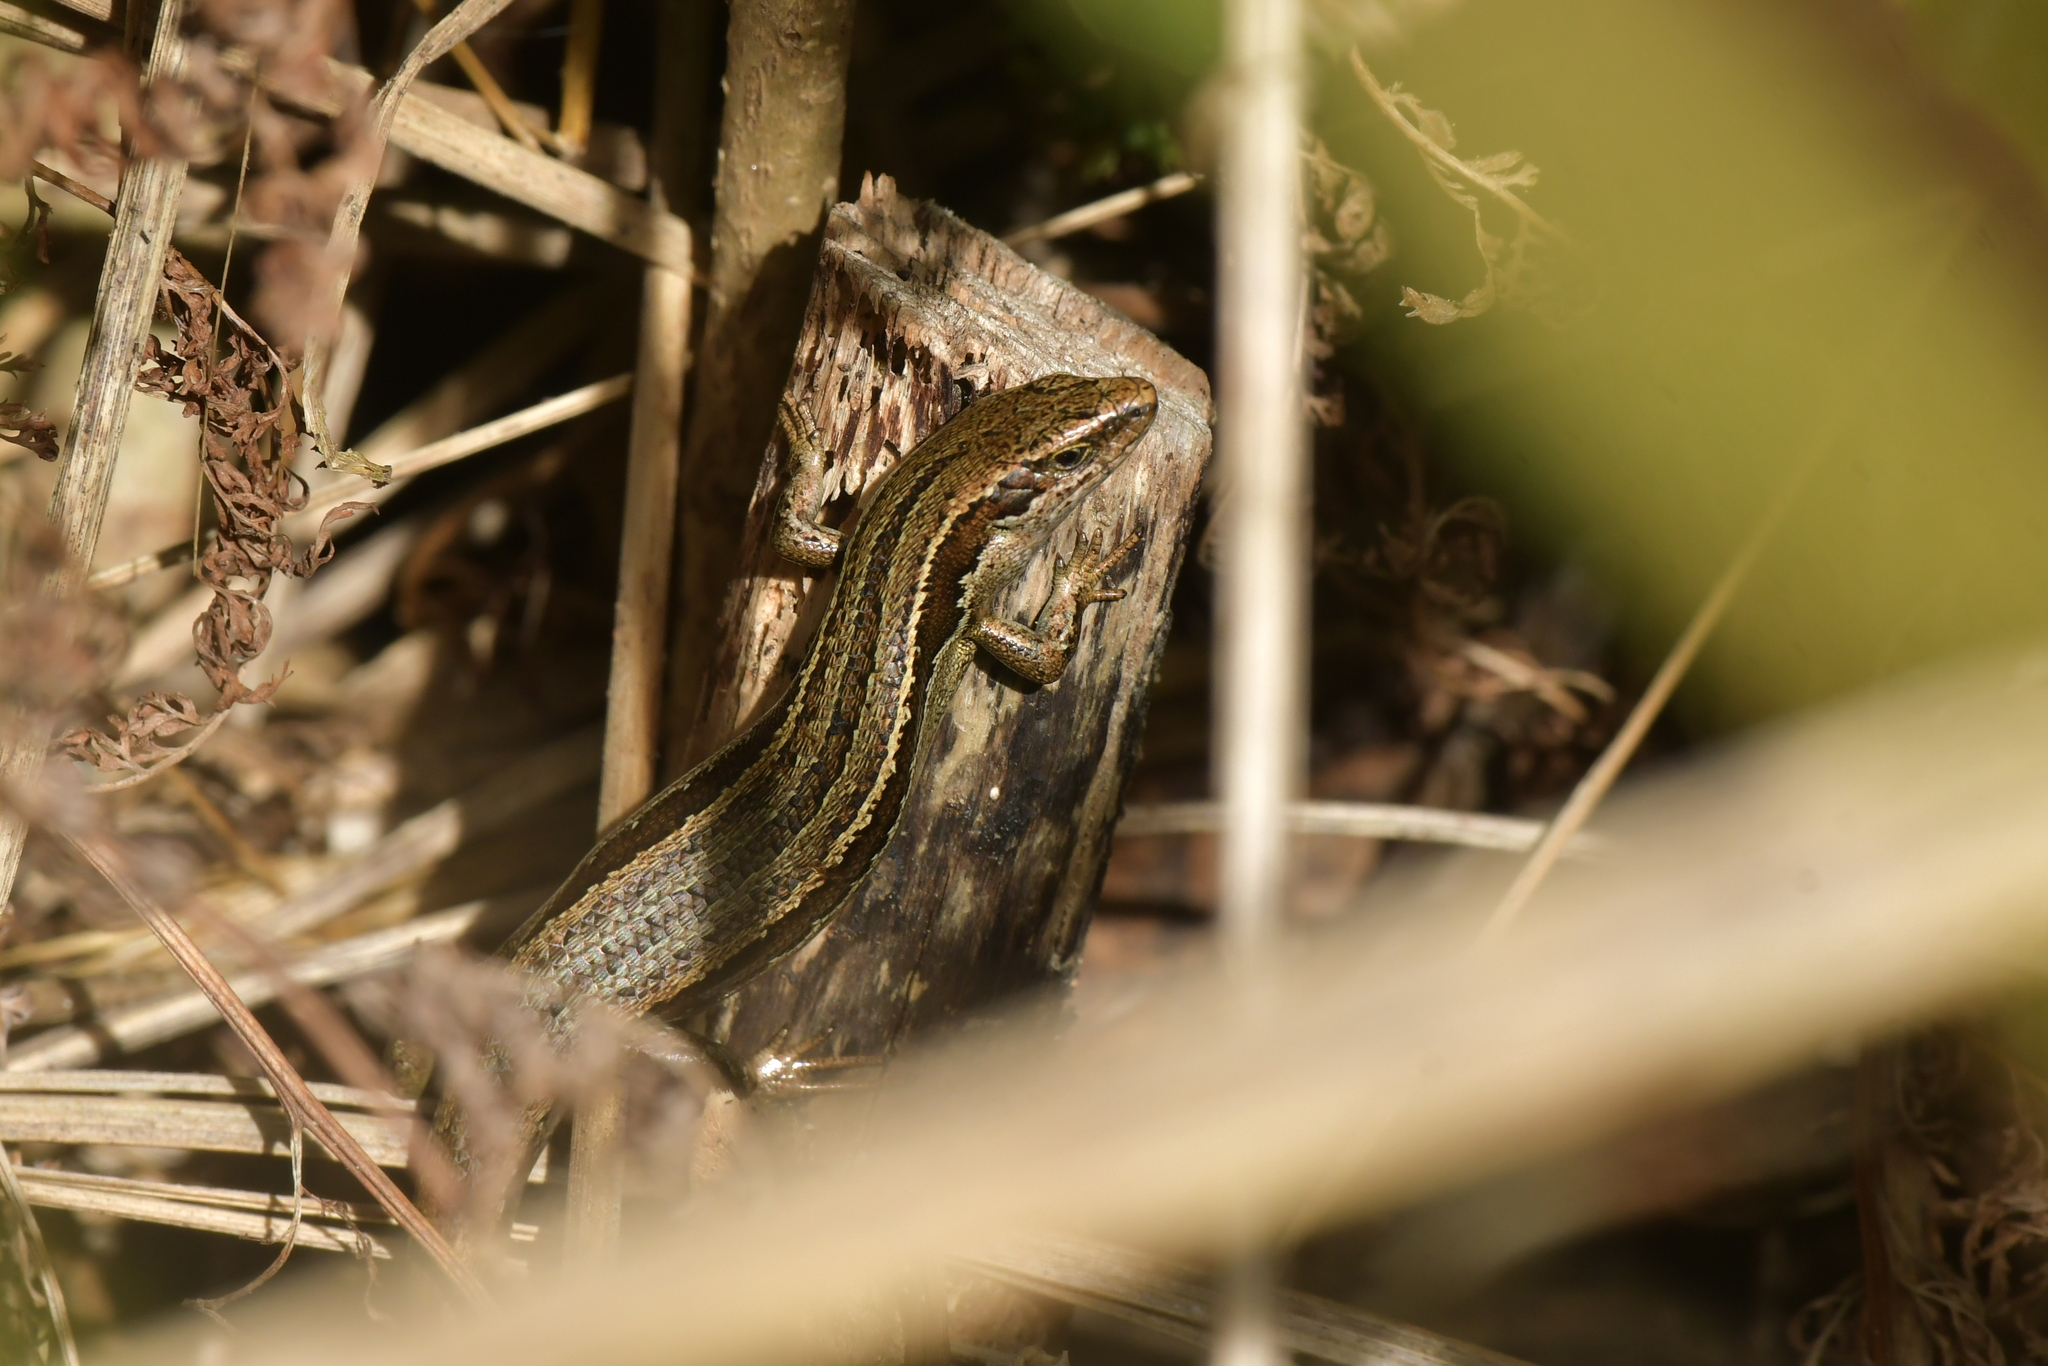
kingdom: Animalia
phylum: Chordata
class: Squamata
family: Scincidae
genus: Oligosoma
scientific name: Oligosoma polychroma
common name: Common new zealand skink
